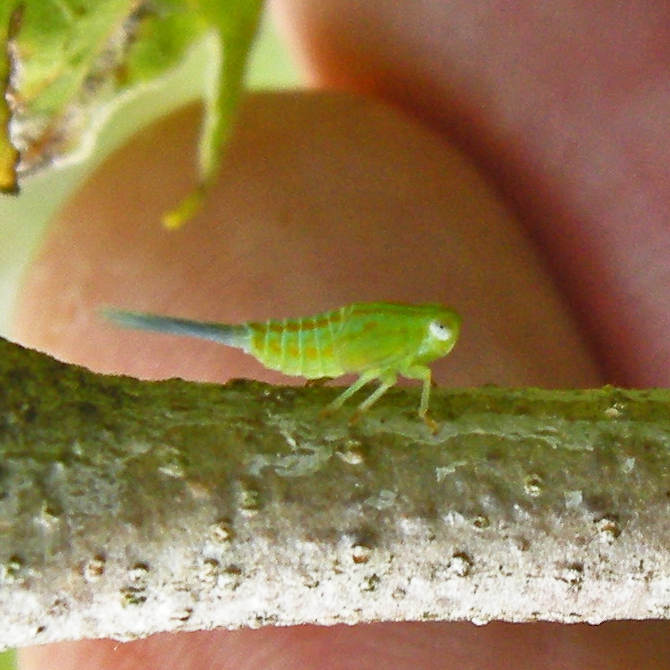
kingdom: Animalia
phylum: Arthropoda
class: Insecta
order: Hemiptera
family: Issidae
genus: Aplos
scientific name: Aplos simplex
